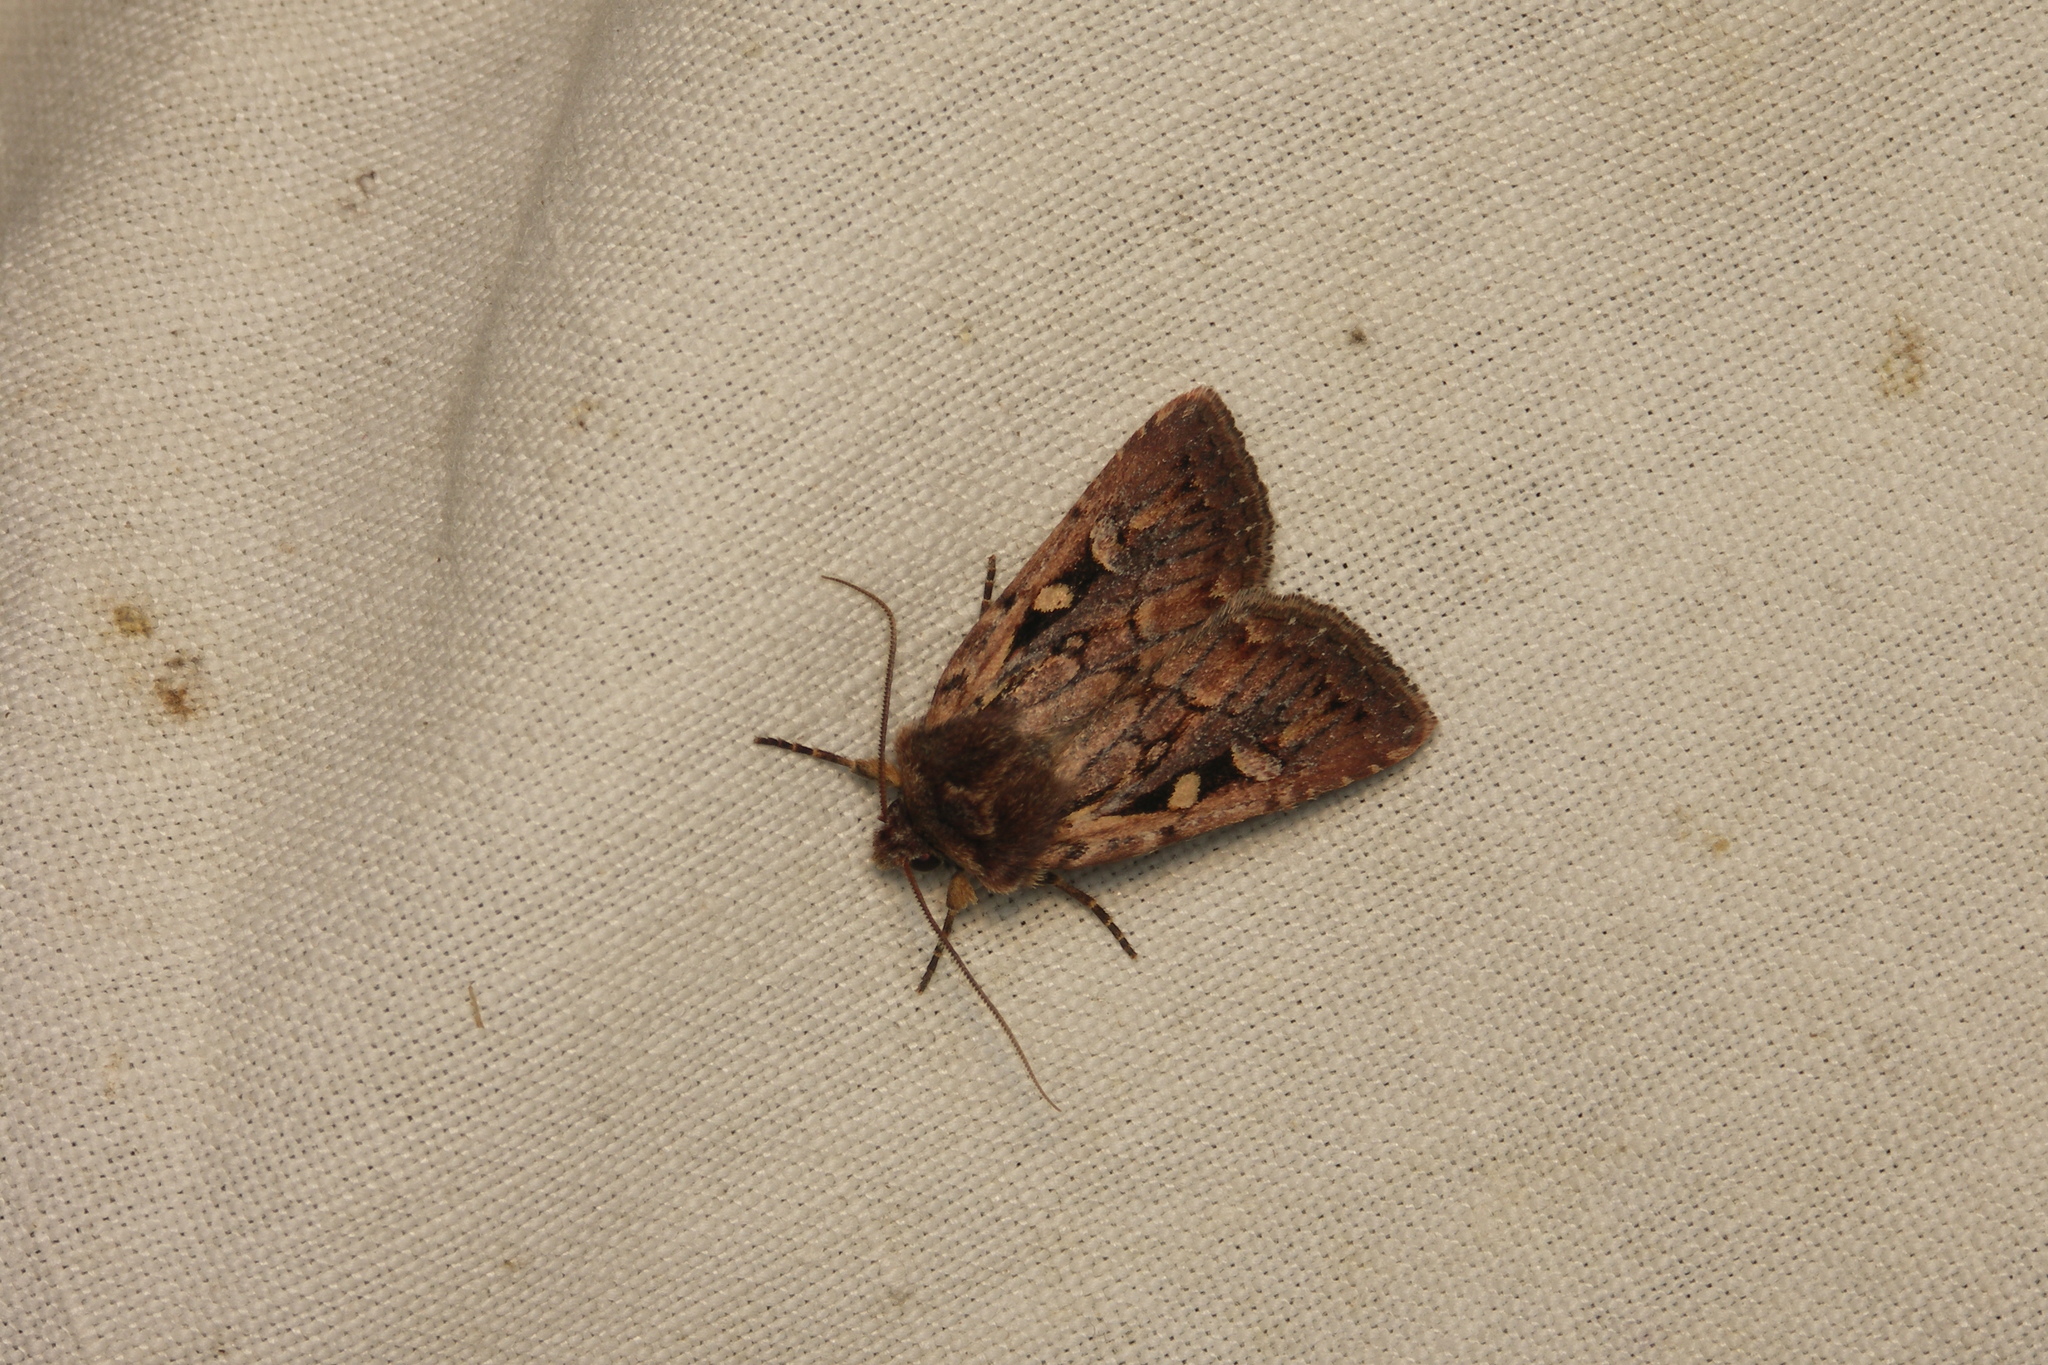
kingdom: Animalia
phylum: Arthropoda
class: Insecta
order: Lepidoptera
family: Noctuidae
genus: Xestia
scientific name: Xestia agathina
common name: Heath rustic
